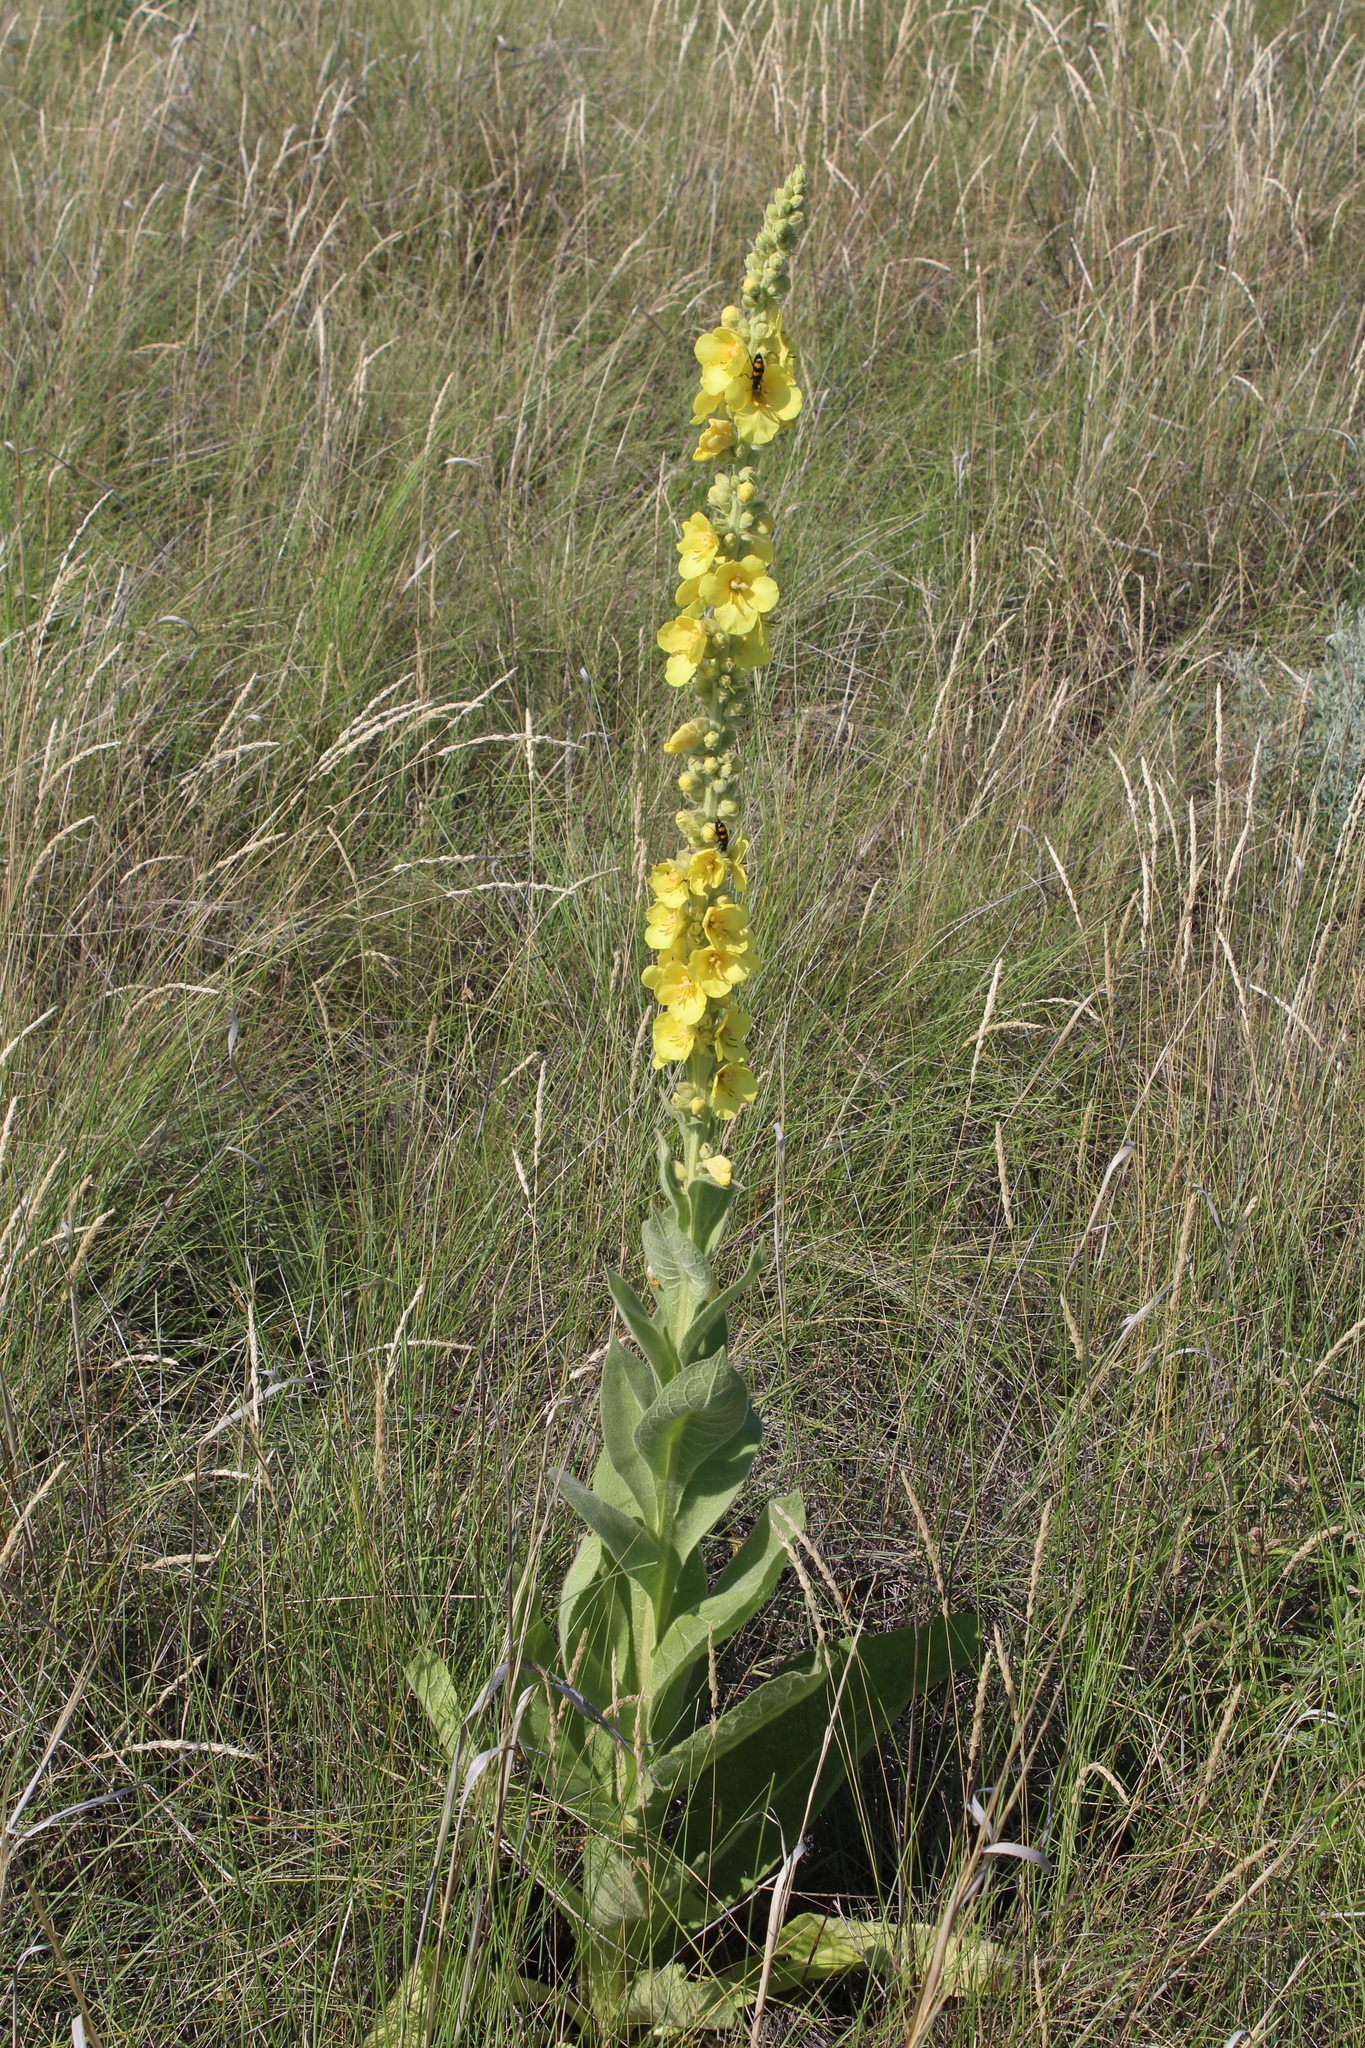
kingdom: Plantae
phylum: Tracheophyta
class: Magnoliopsida
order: Lamiales
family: Scrophulariaceae
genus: Verbascum
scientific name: Verbascum densiflorum
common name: Dense-flowered mullein
